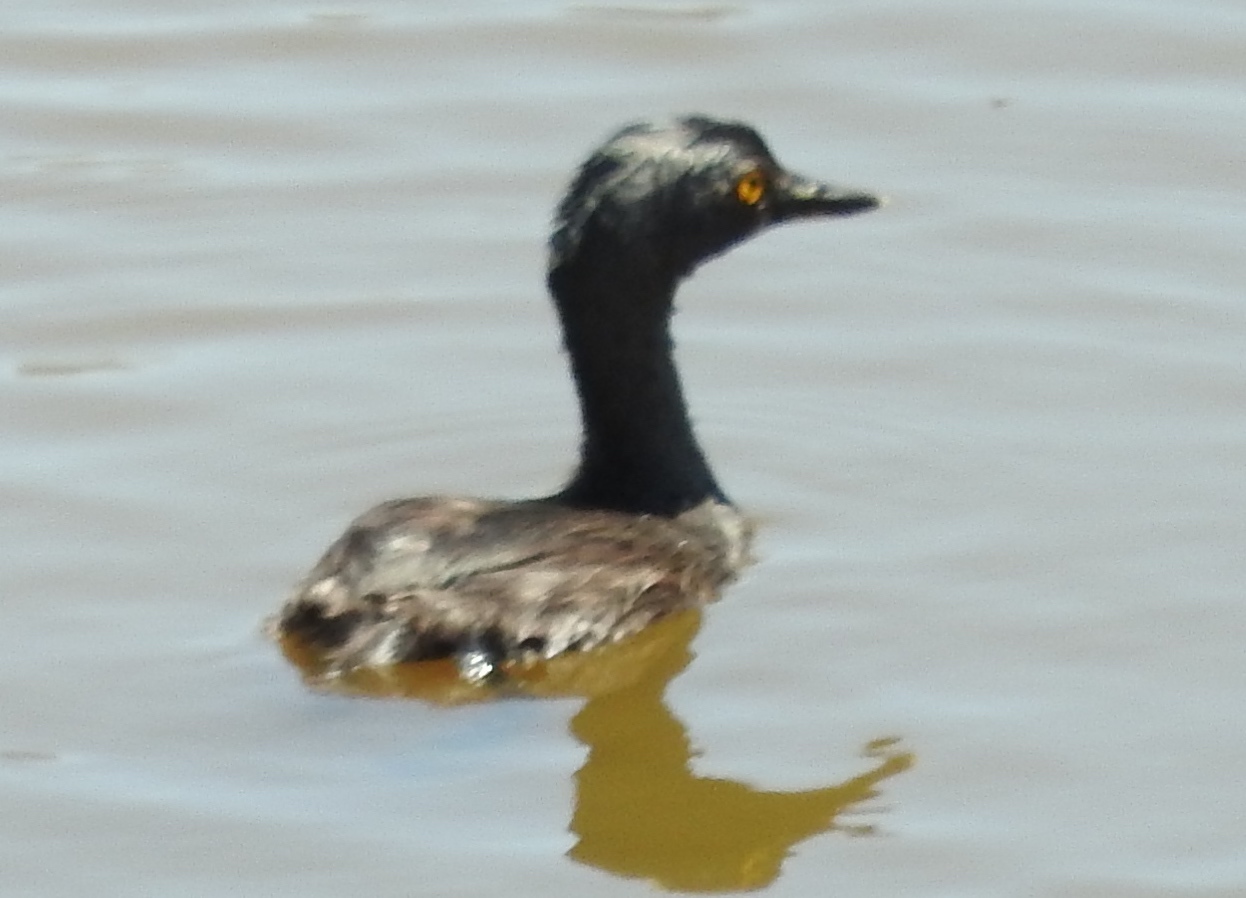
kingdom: Animalia
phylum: Chordata
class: Aves
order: Podicipediformes
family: Podicipedidae
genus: Tachybaptus
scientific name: Tachybaptus dominicus
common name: Least grebe
